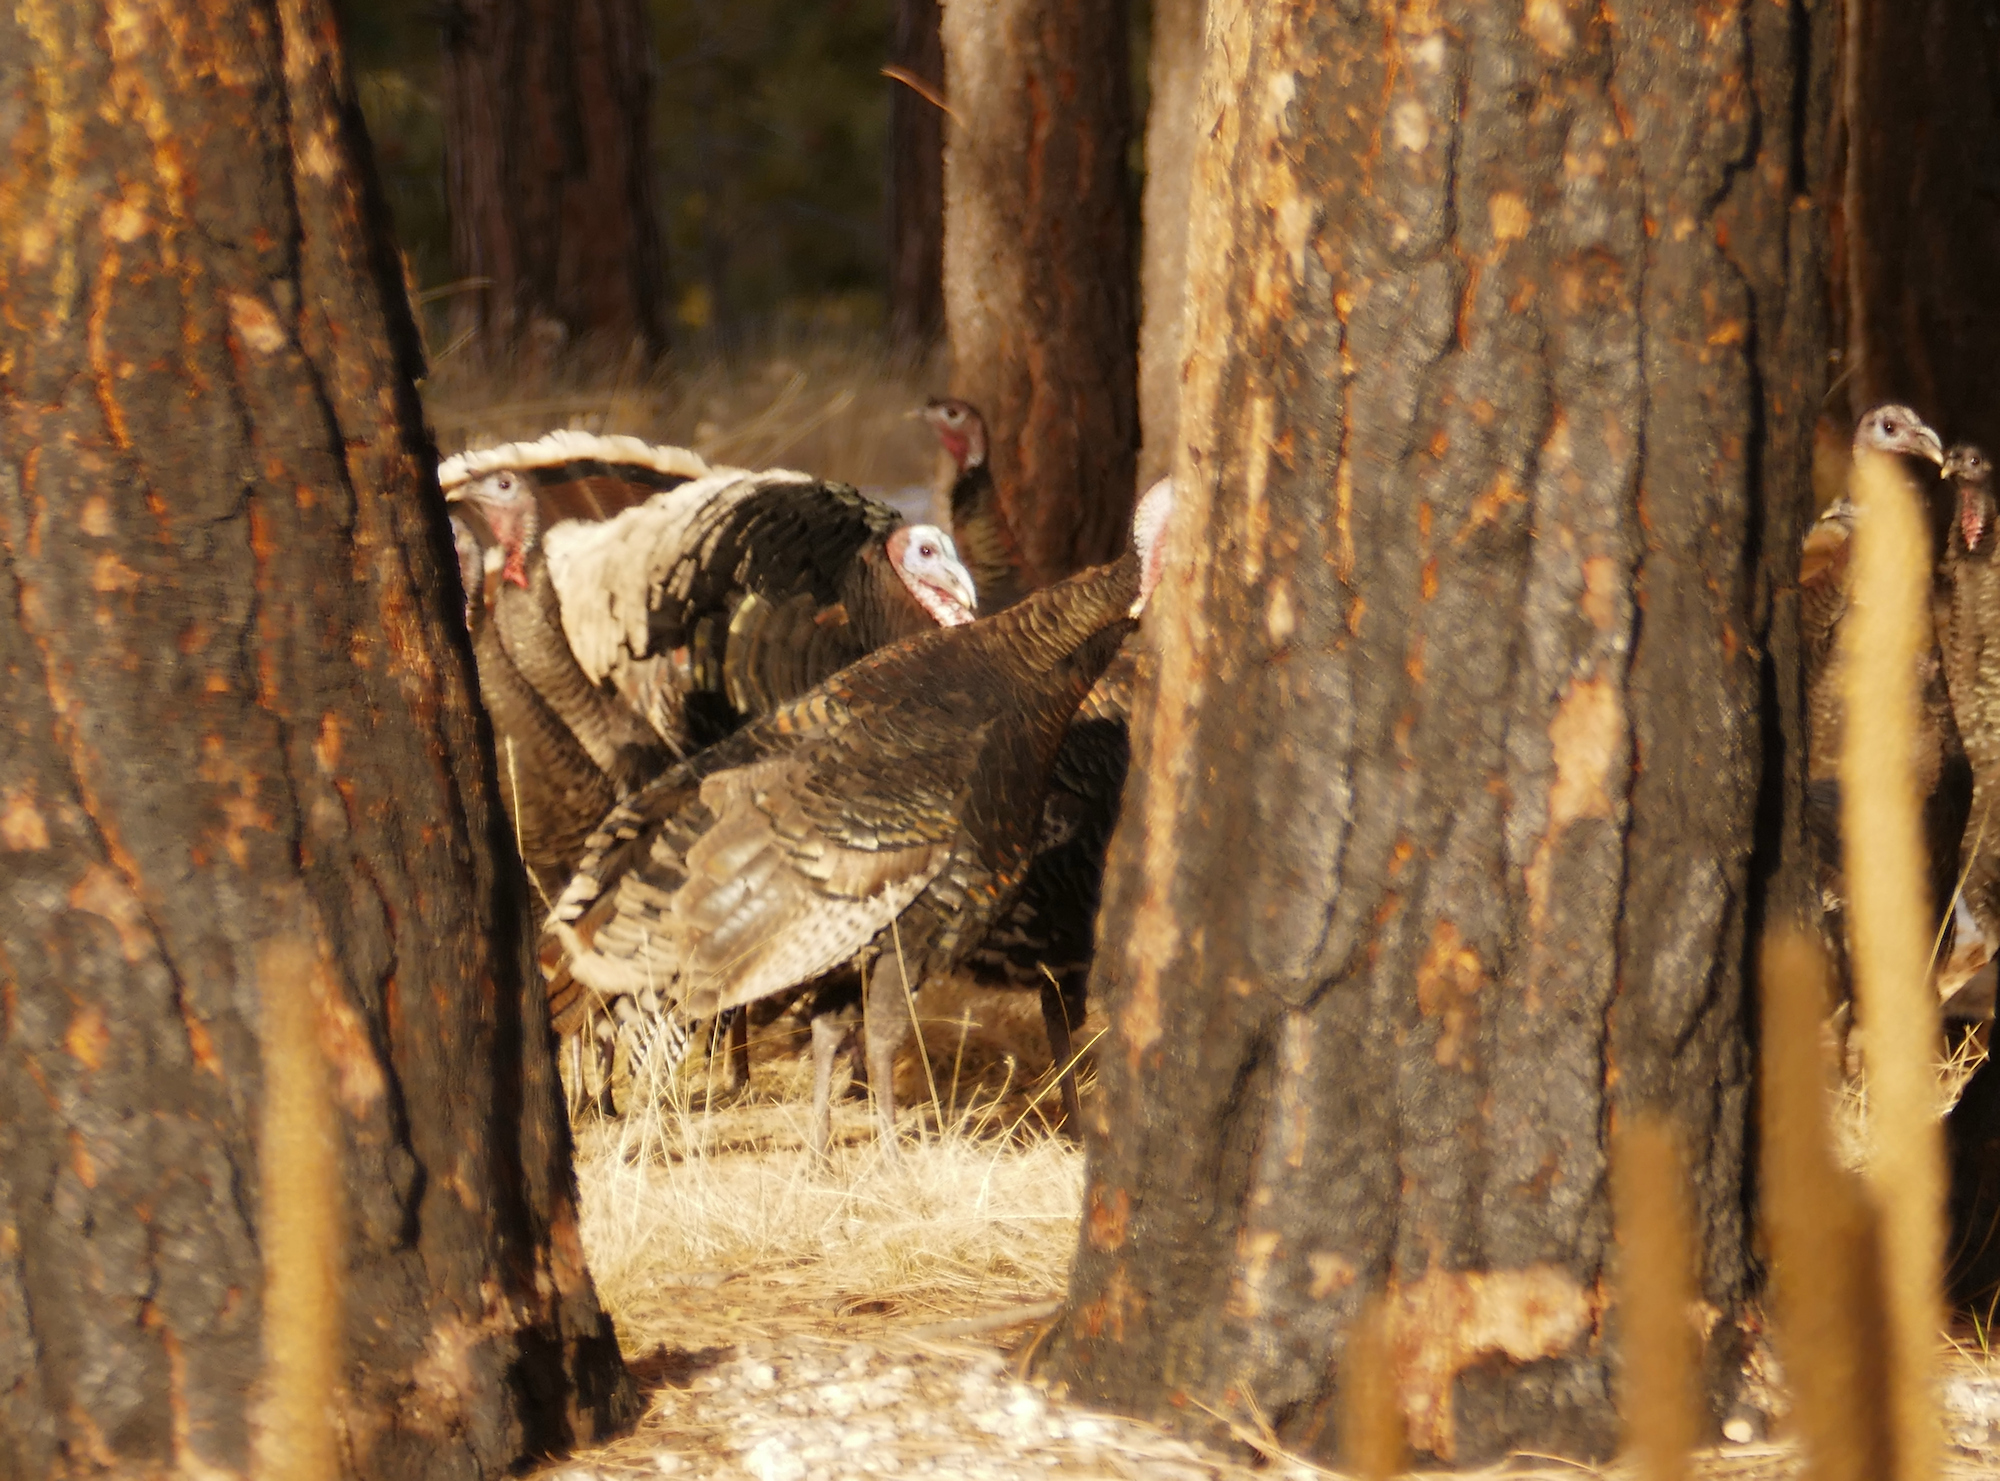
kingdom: Animalia
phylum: Chordata
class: Aves
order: Galliformes
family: Phasianidae
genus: Meleagris
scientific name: Meleagris gallopavo
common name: Wild turkey
